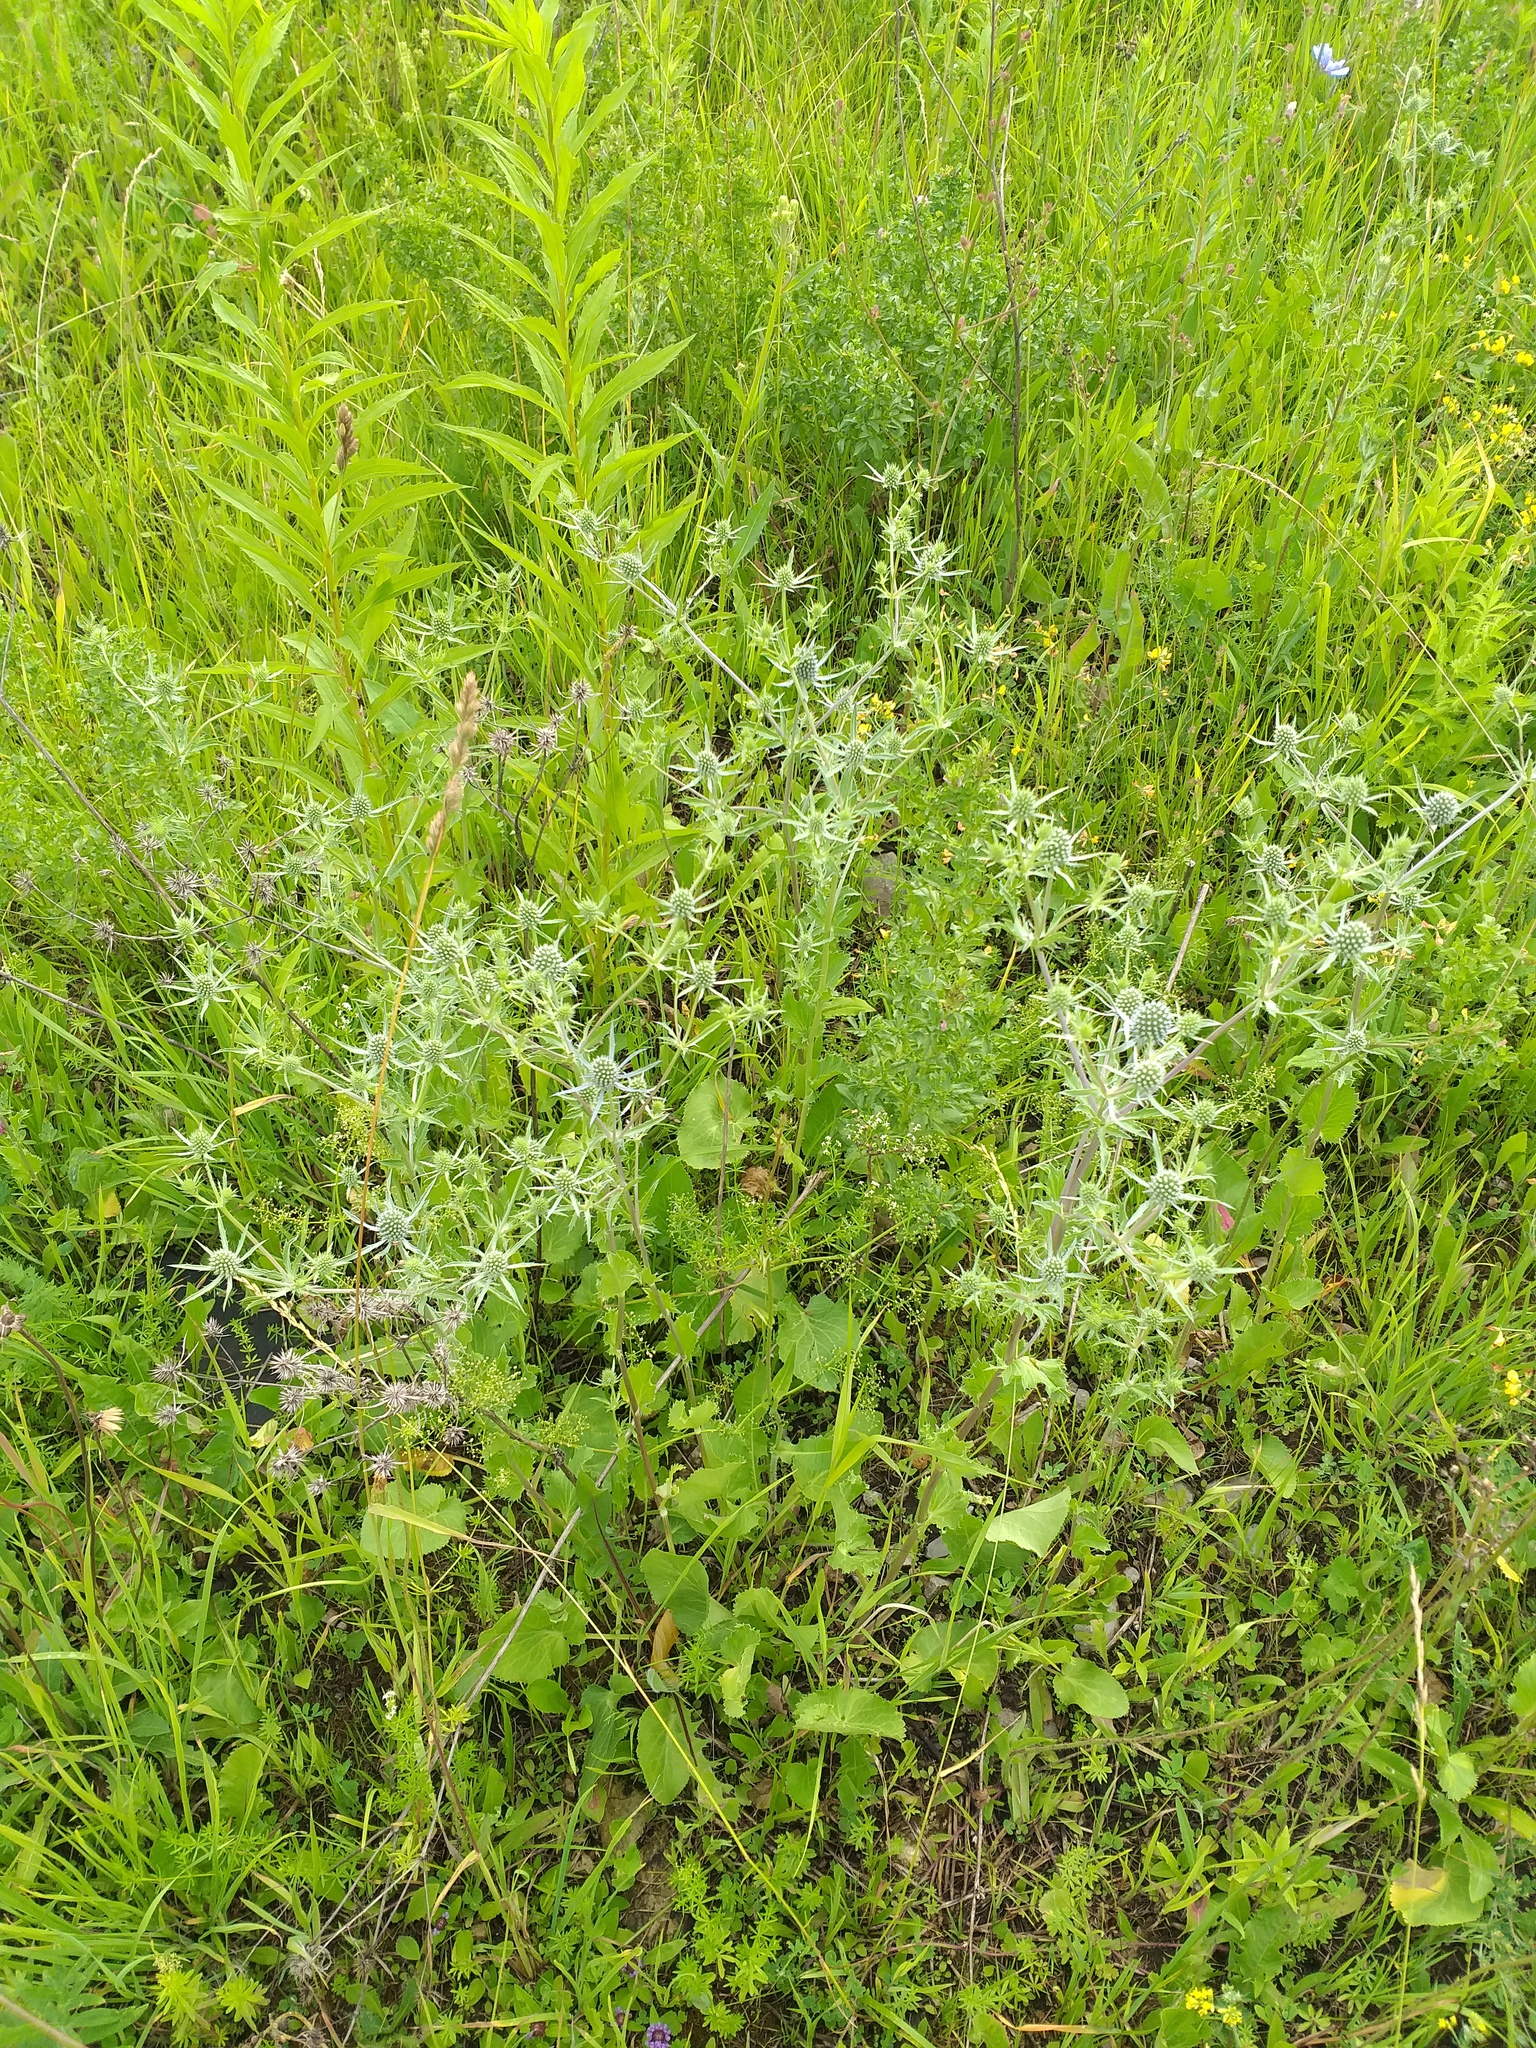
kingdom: Plantae
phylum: Tracheophyta
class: Magnoliopsida
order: Apiales
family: Apiaceae
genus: Eryngium
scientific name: Eryngium planum
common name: Blue eryngo
